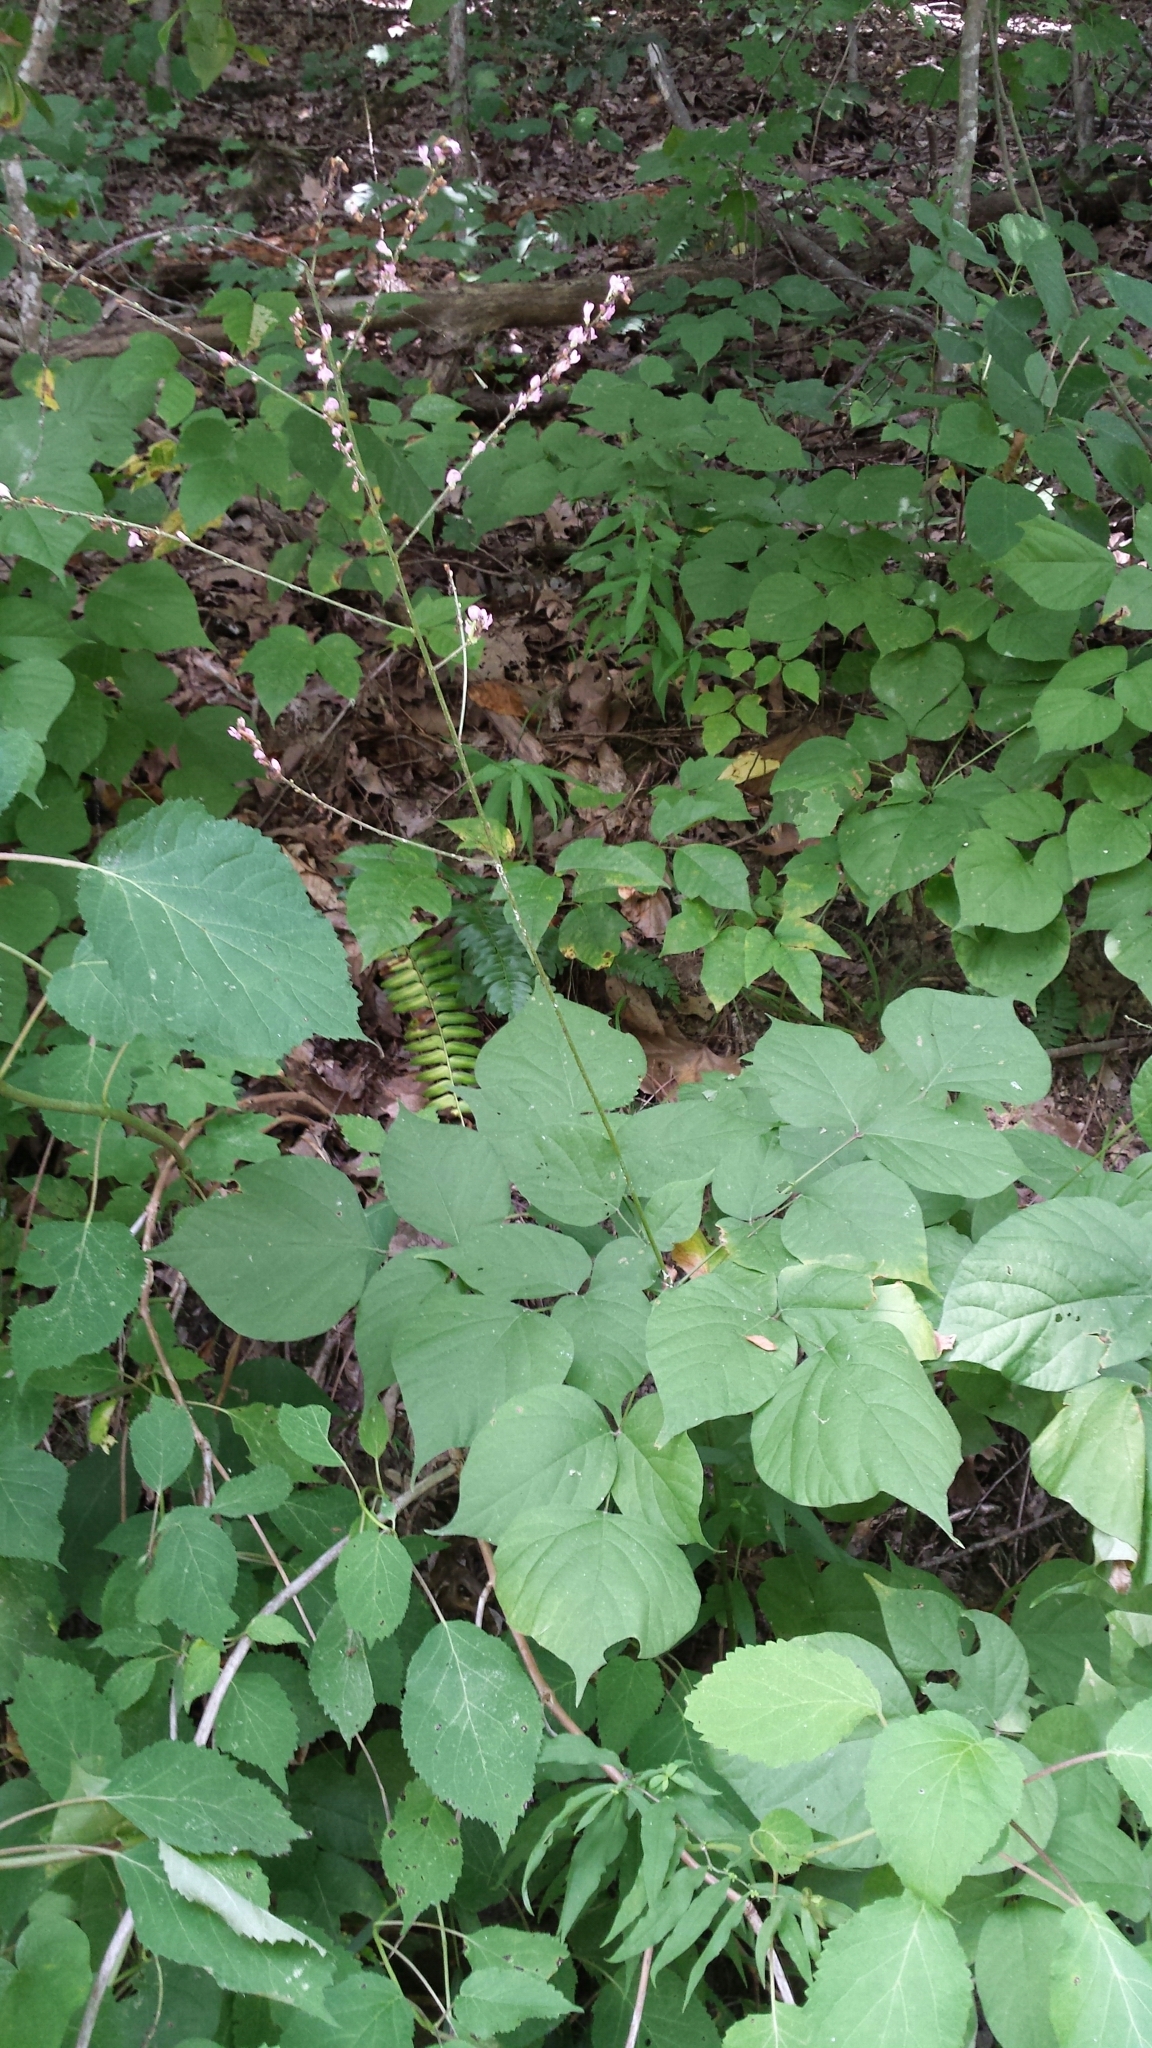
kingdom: Plantae
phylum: Tracheophyta
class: Magnoliopsida
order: Fabales
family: Fabaceae
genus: Hylodesmum
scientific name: Hylodesmum glutinosum
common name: Clustered-leaved tick-trefoil
